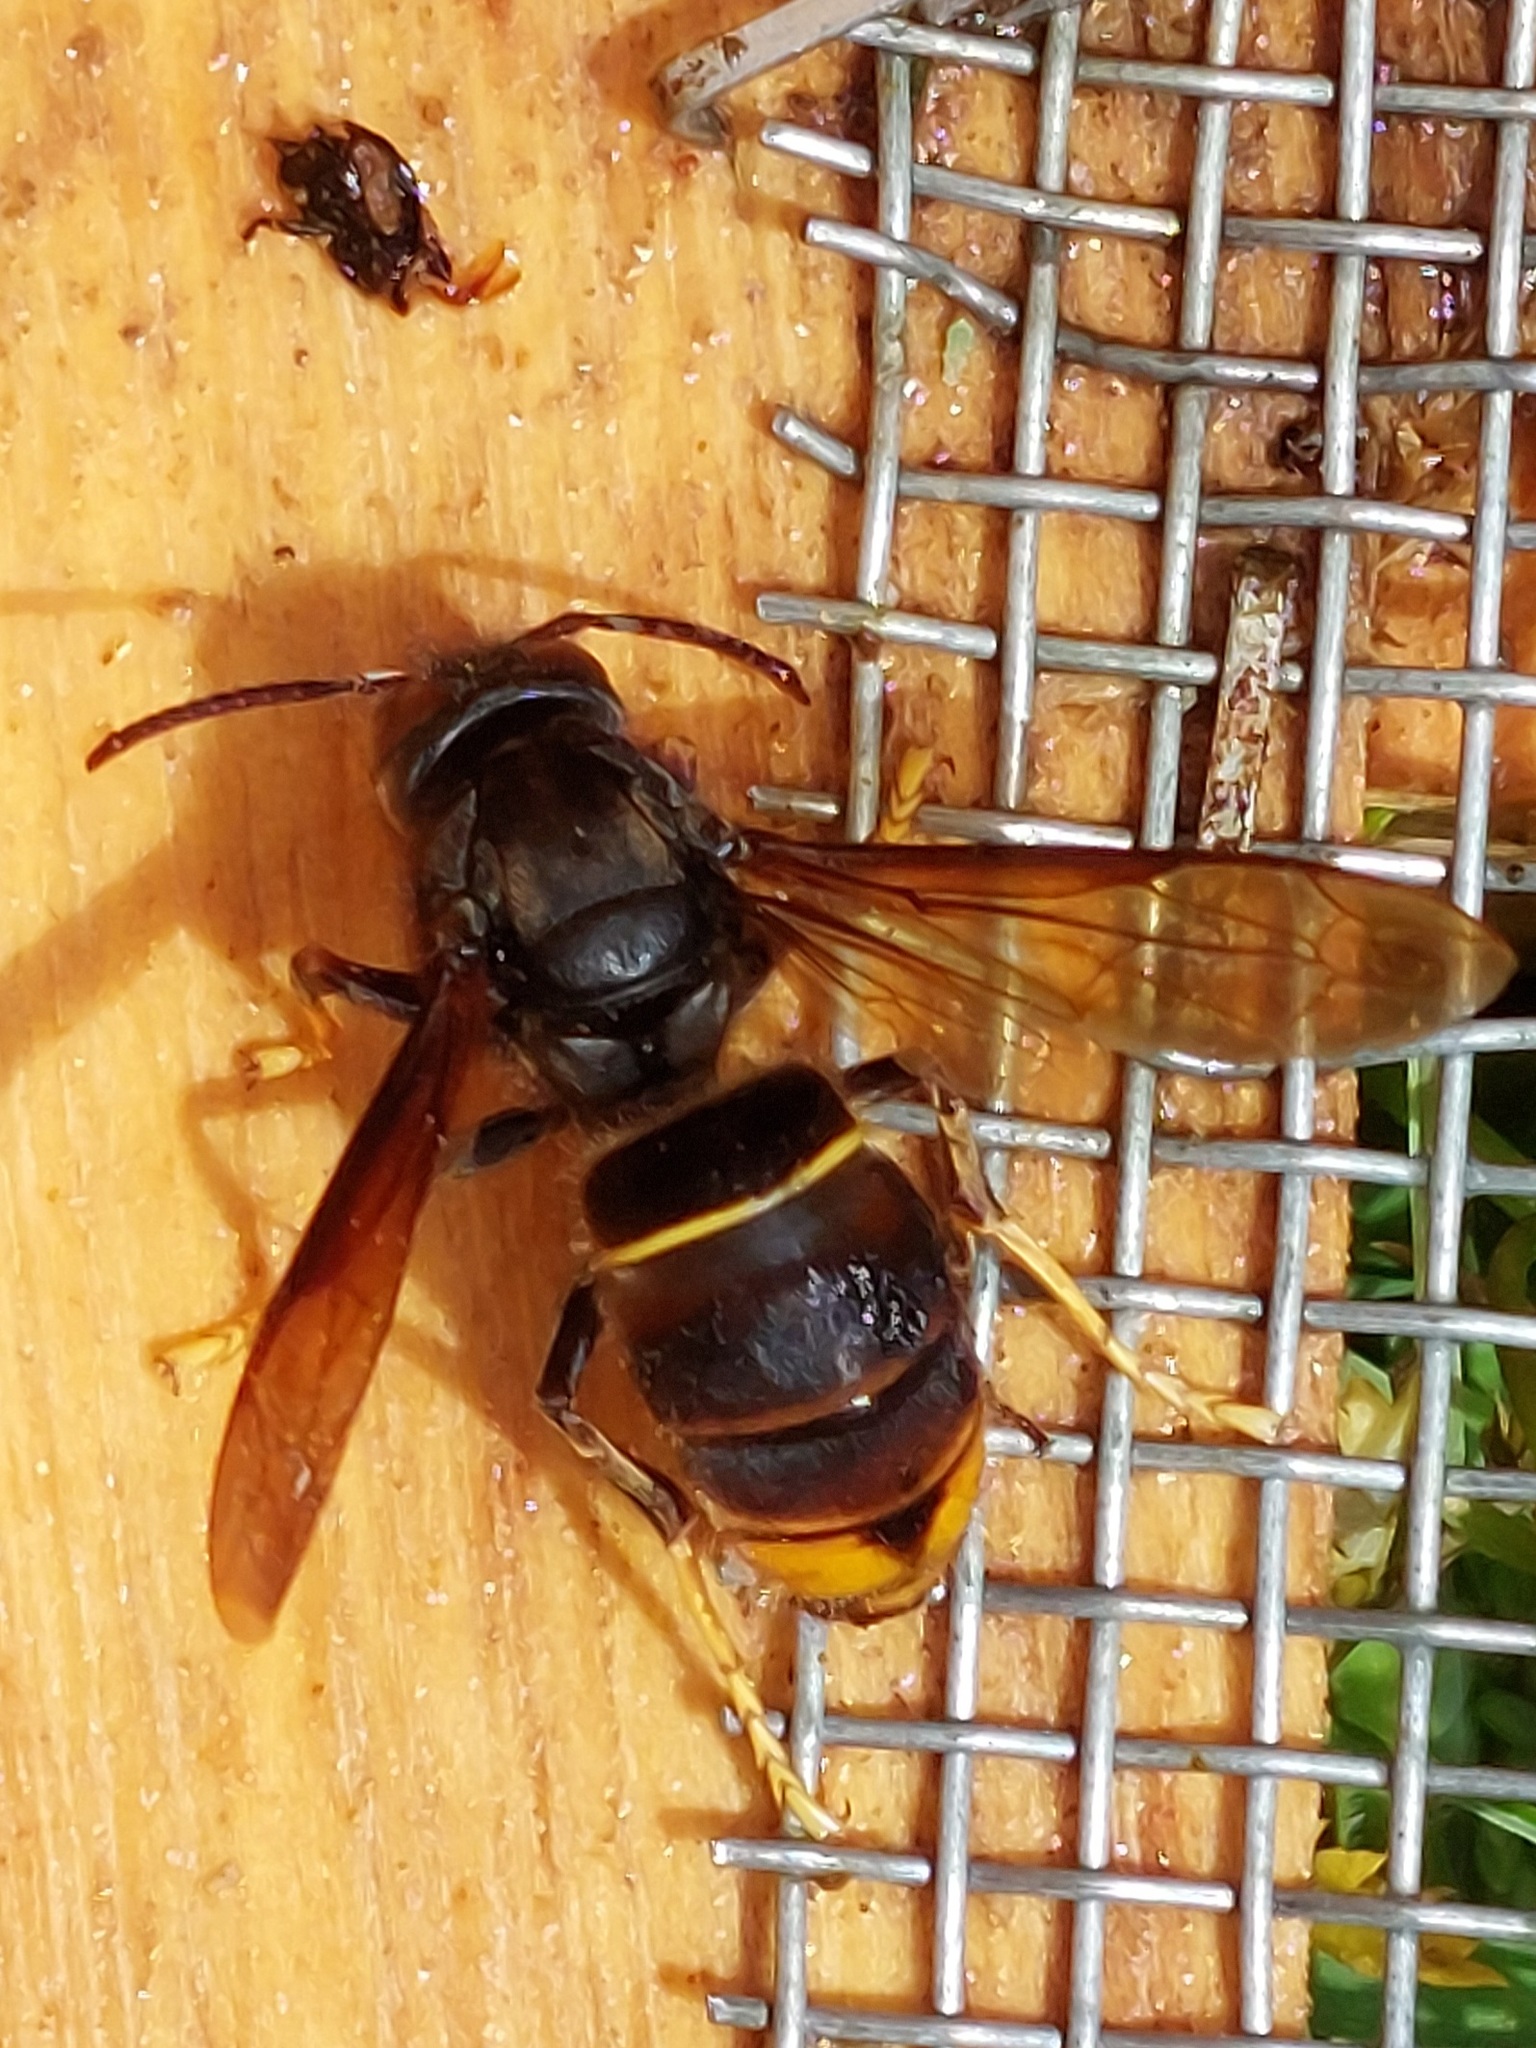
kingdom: Animalia
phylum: Arthropoda
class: Insecta
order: Hymenoptera
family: Vespidae
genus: Vespa
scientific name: Vespa velutina
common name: Asian hornet
